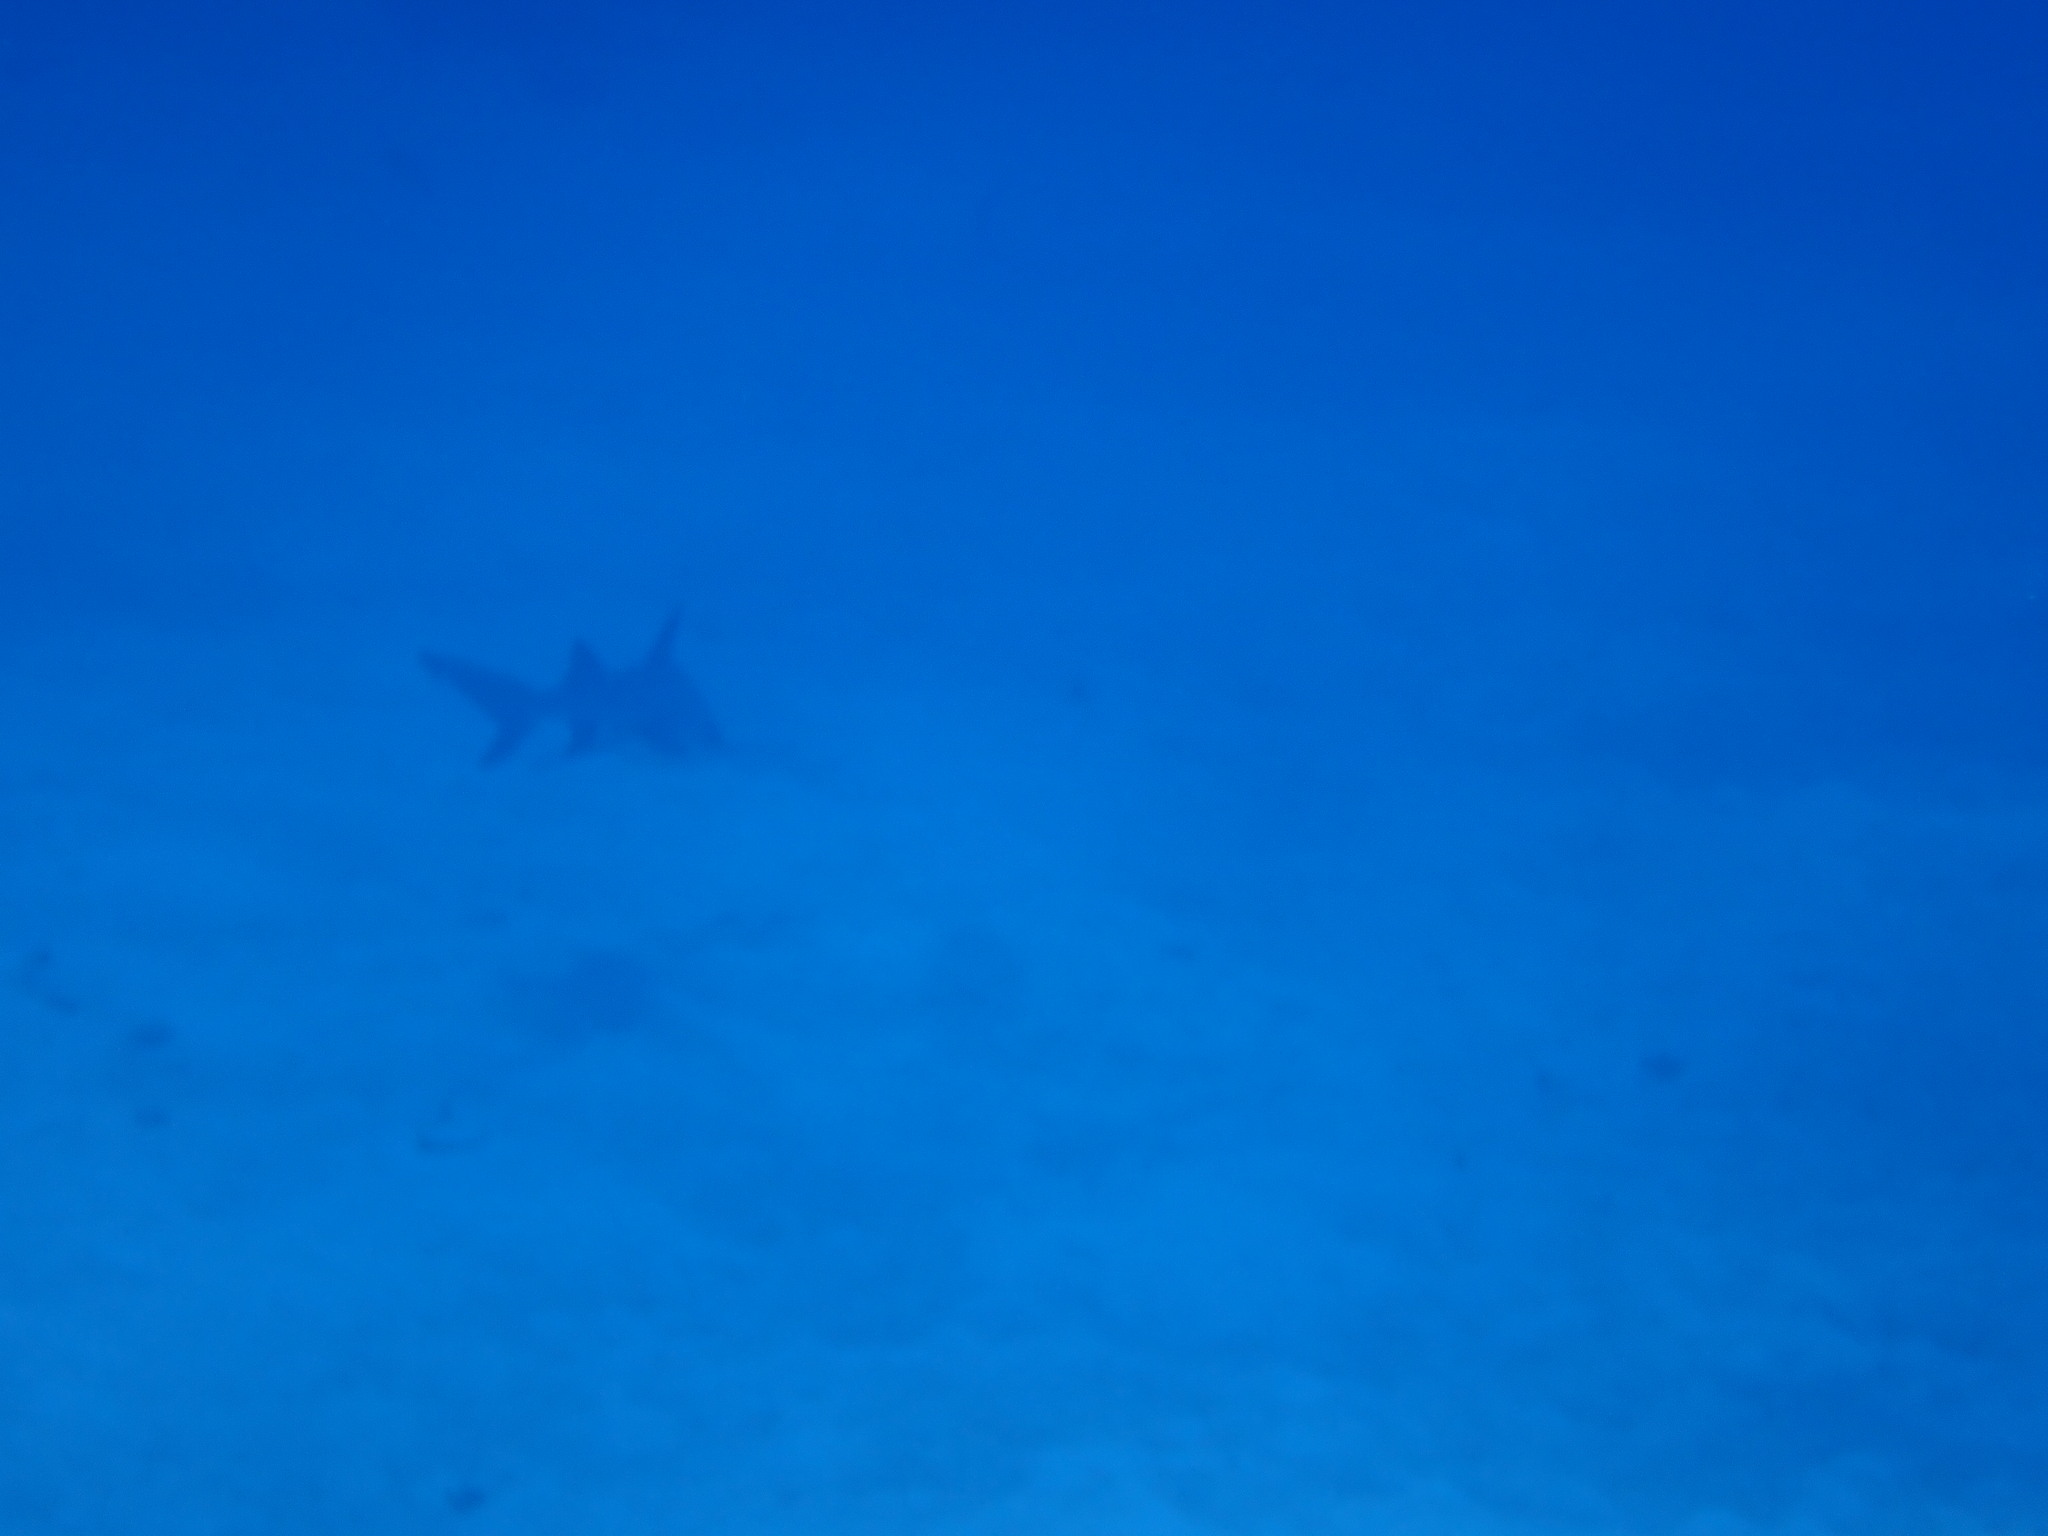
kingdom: Animalia
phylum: Chordata
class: Elasmobranchii
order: Carcharhiniformes
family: Carcharhinidae
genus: Triaenodon
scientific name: Triaenodon obesus
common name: Whitetip reef shark
